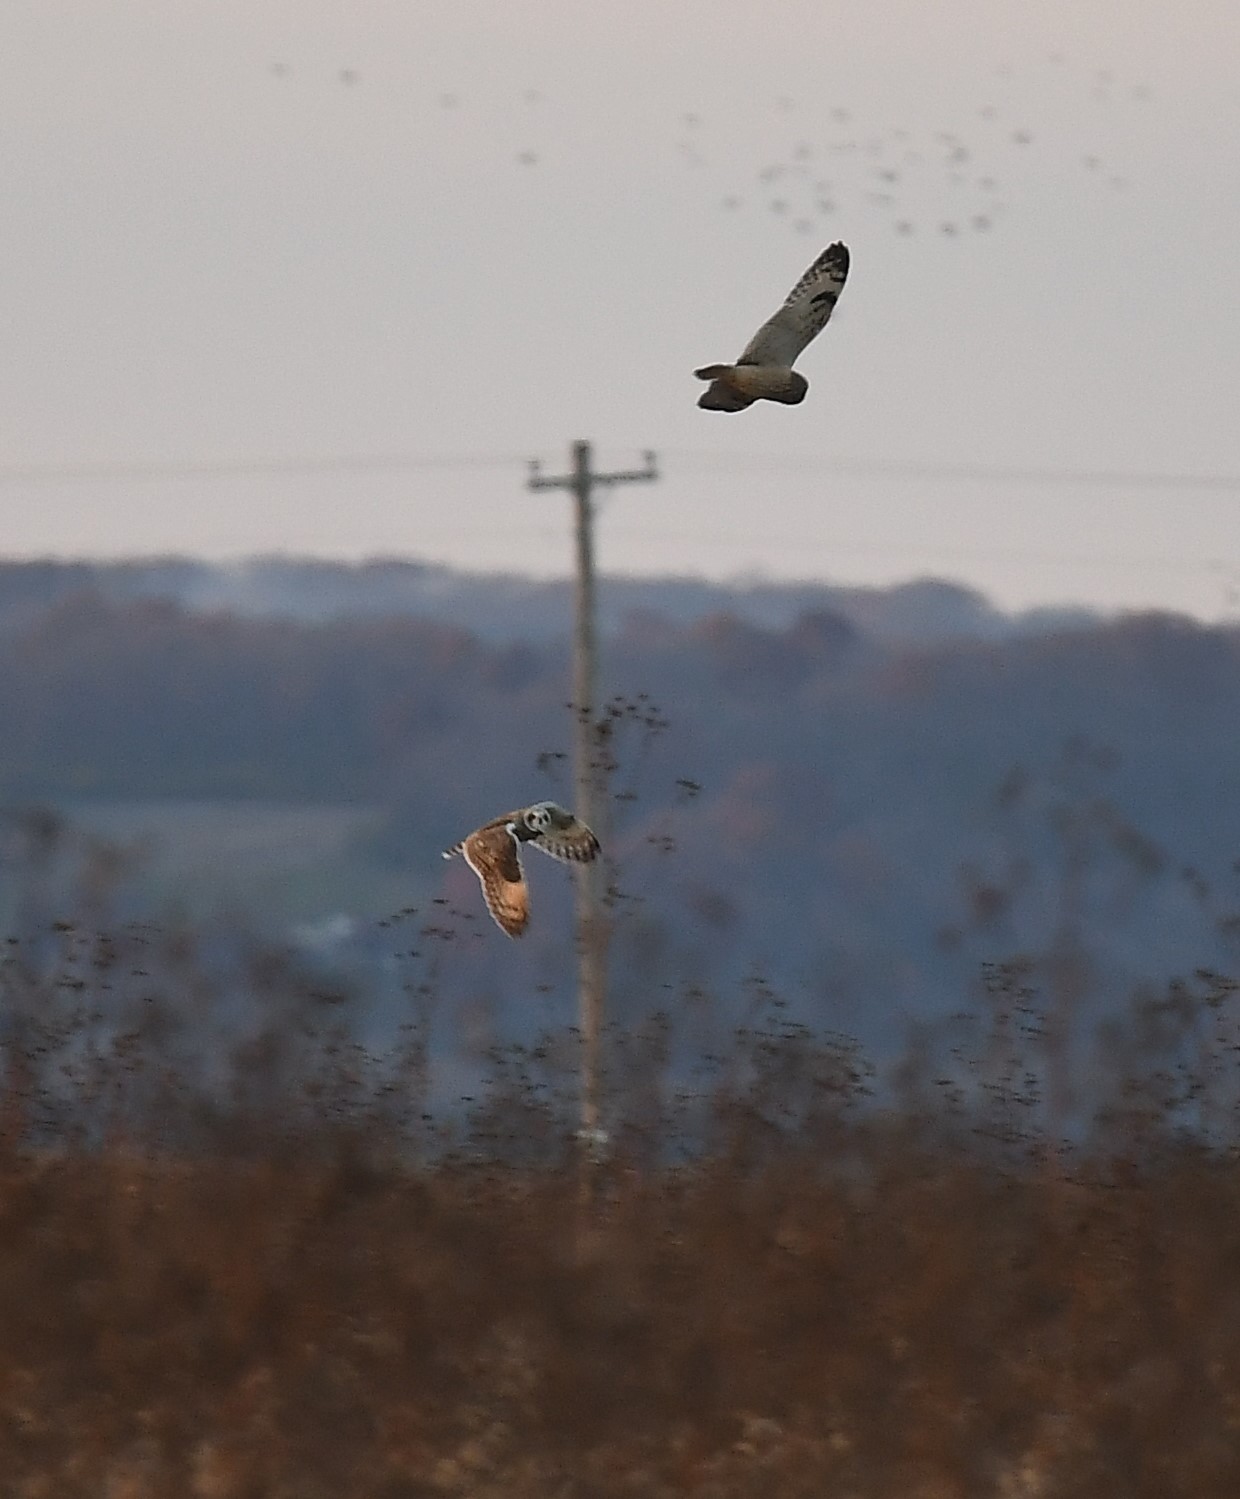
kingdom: Animalia
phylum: Chordata
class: Aves
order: Strigiformes
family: Strigidae
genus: Asio
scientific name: Asio flammeus
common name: Short-eared owl
